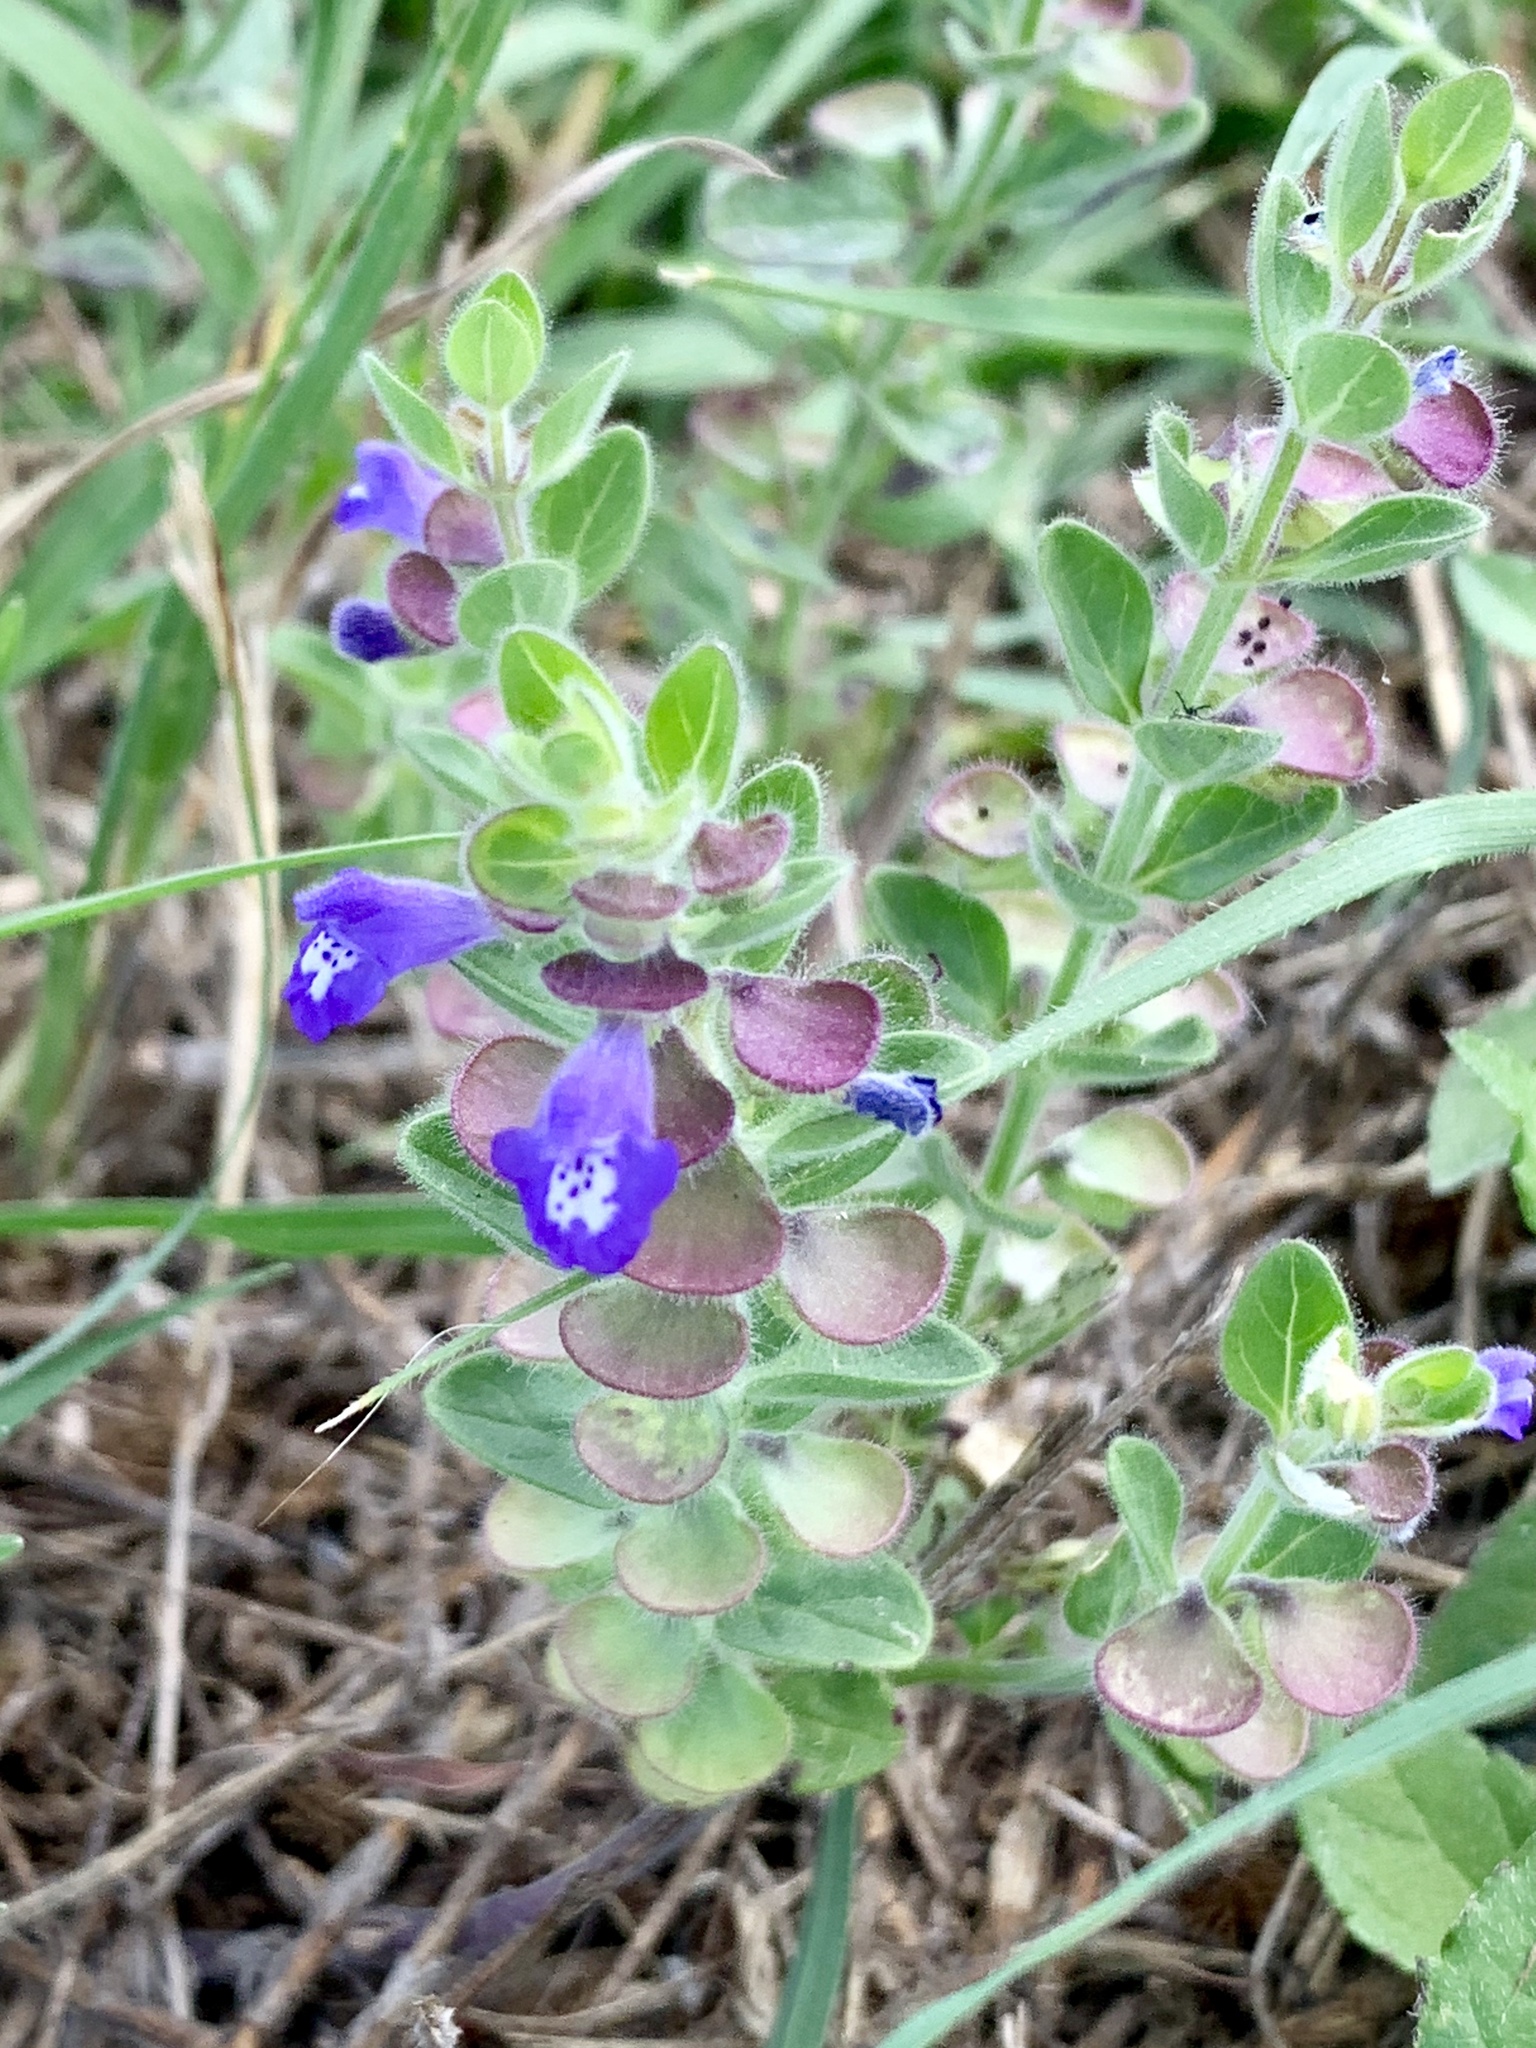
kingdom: Plantae
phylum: Tracheophyta
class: Magnoliopsida
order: Lamiales
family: Lamiaceae
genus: Scutellaria
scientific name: Scutellaria drummondii
